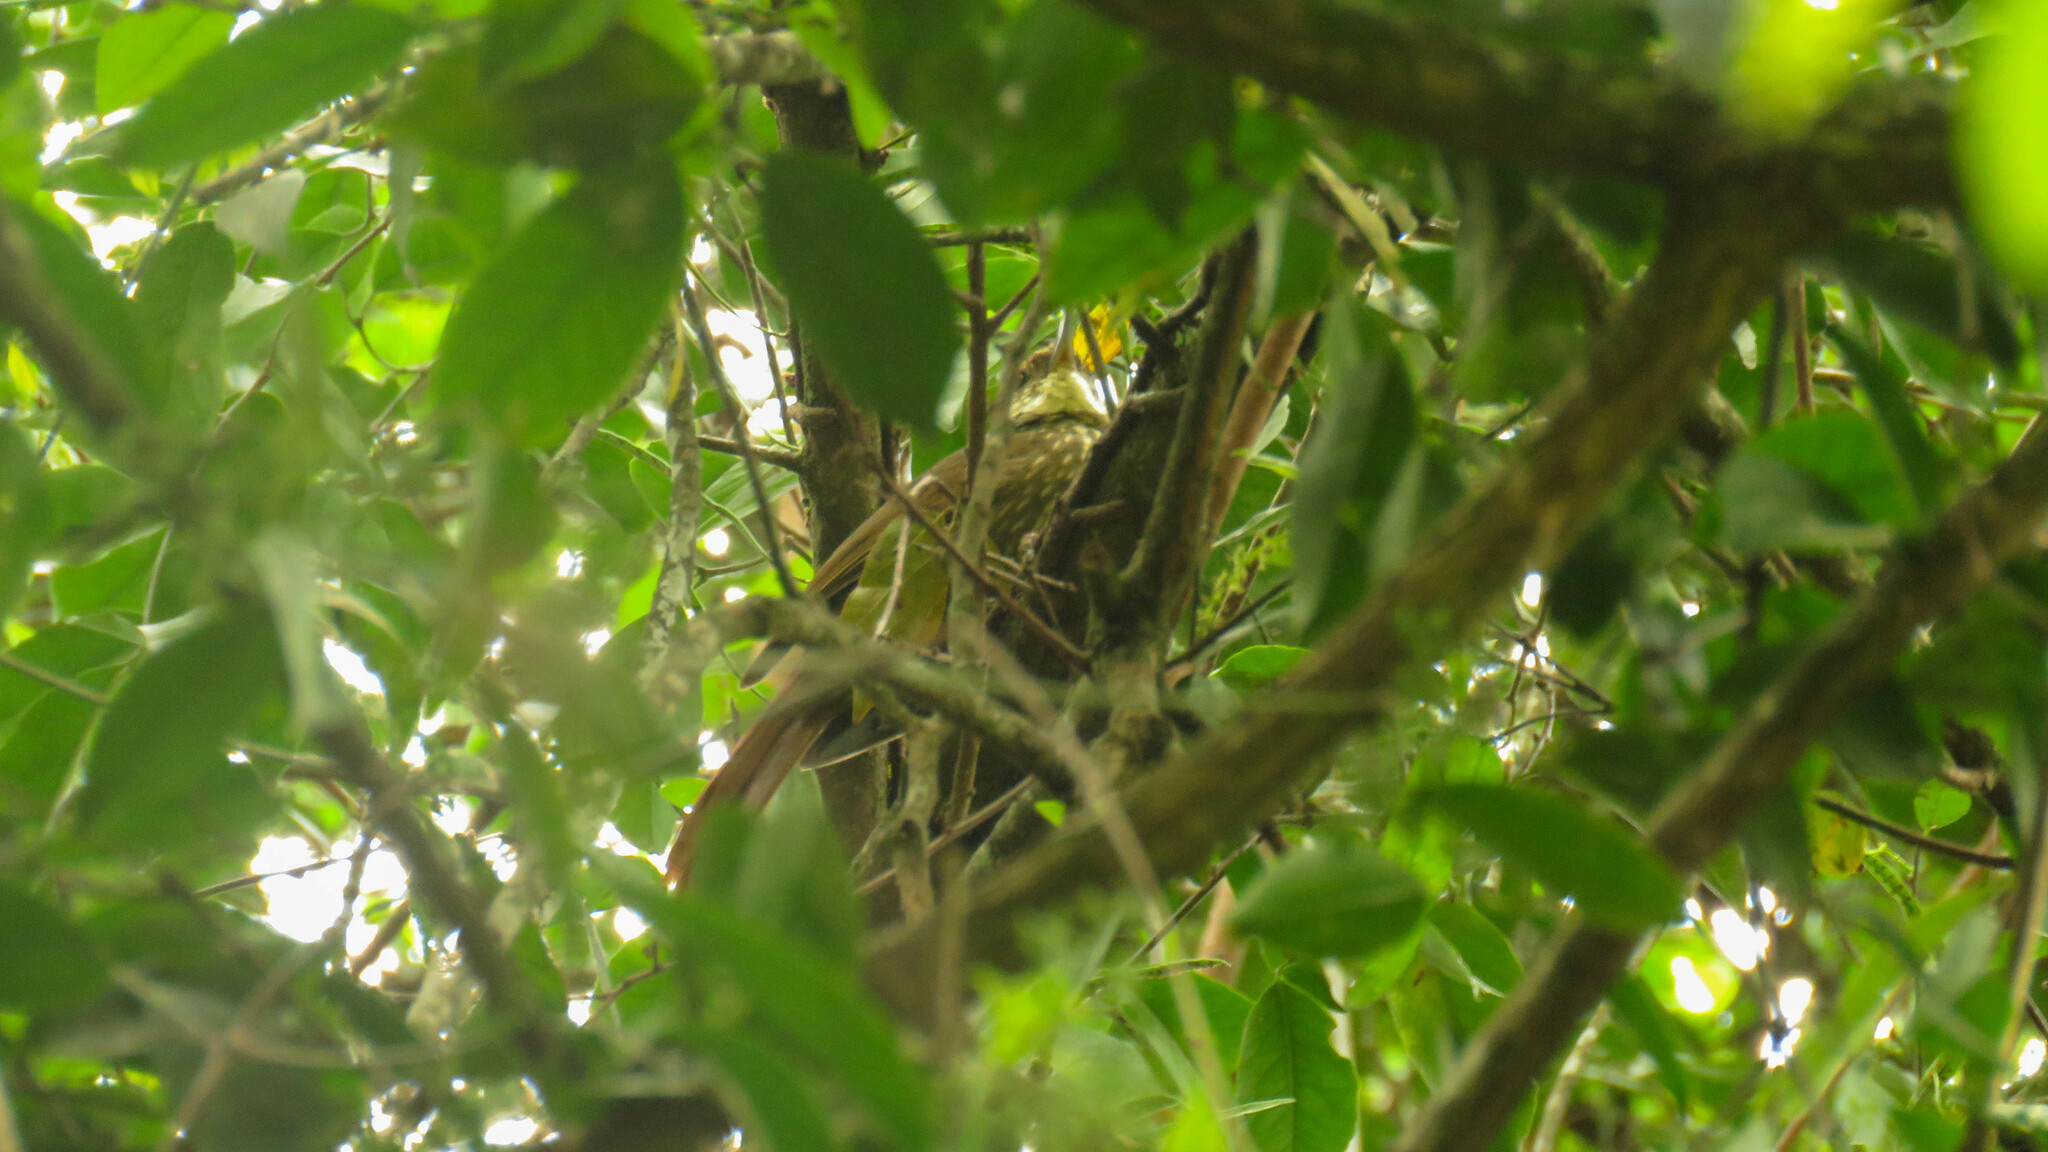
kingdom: Animalia
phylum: Chordata
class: Aves
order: Passeriformes
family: Furnariidae
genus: Syndactyla
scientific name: Syndactyla rufosuperciliata
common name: Buff-browed foliage-gleaner
